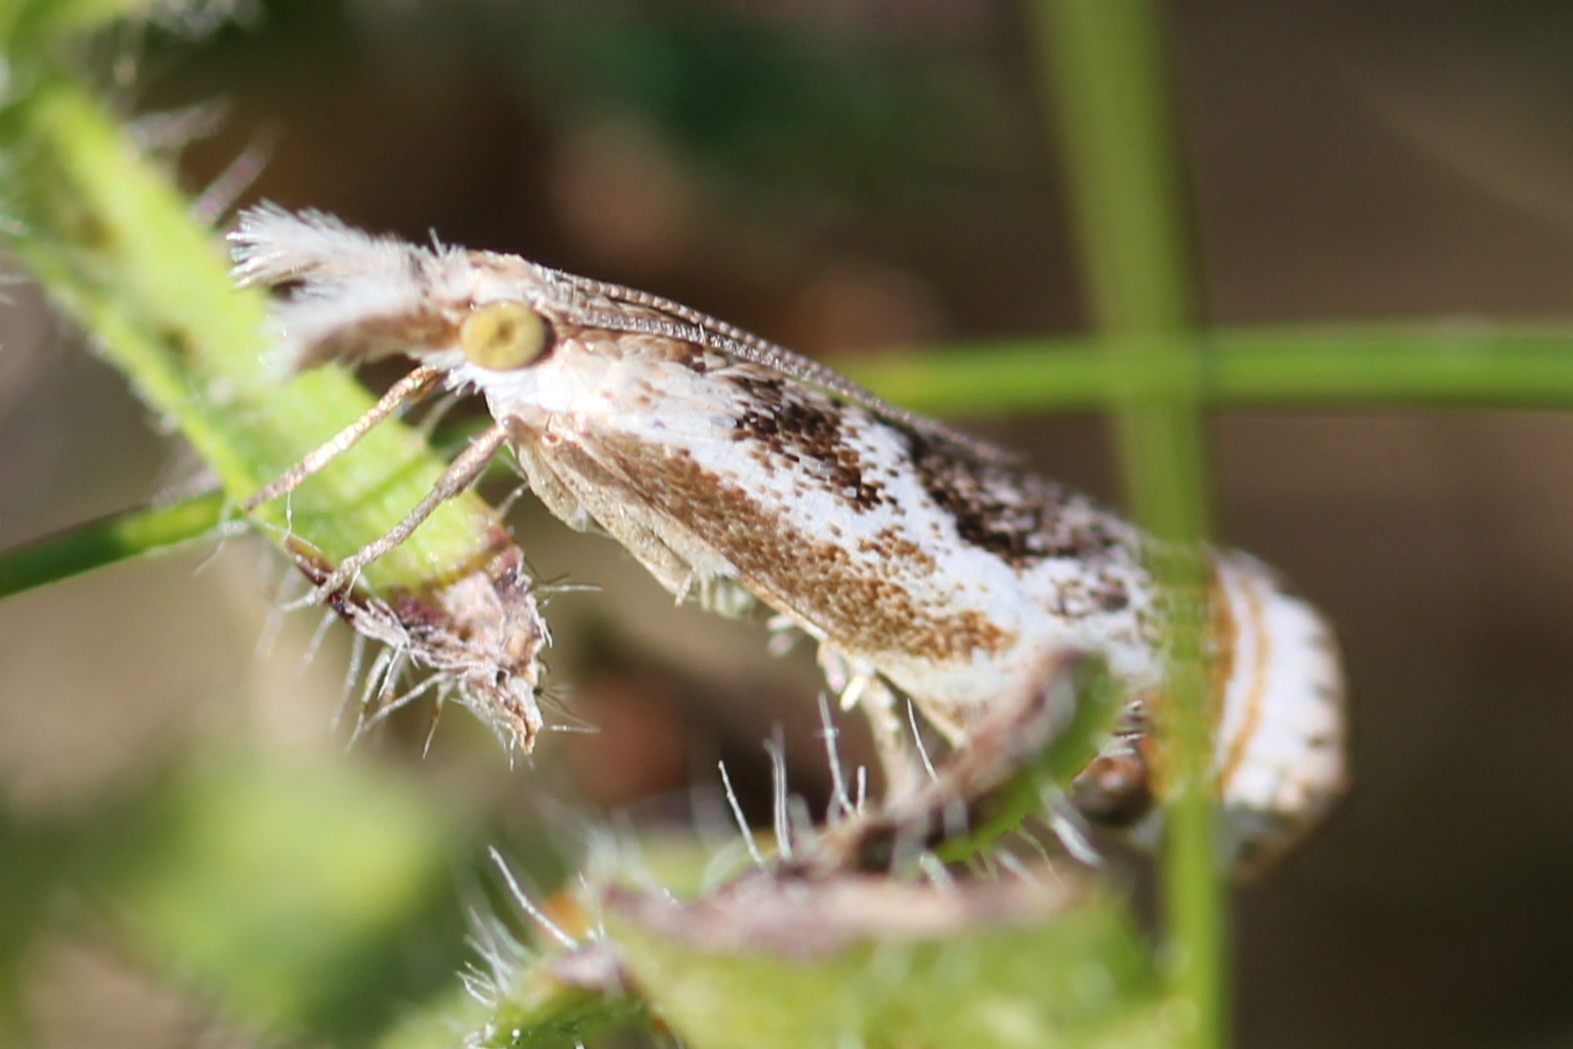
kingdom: Animalia
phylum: Arthropoda
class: Insecta
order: Lepidoptera
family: Crambidae
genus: Microcrambus
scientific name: Microcrambus elegans
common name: Elegant grass-veneer
